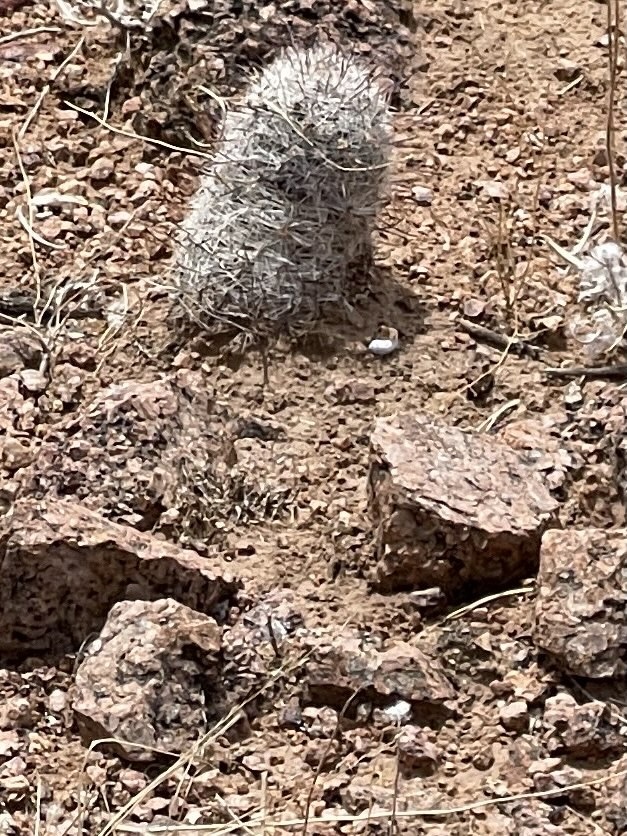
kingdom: Plantae
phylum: Tracheophyta
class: Magnoliopsida
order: Caryophyllales
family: Cactaceae
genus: Cochemiea
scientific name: Cochemiea grahamii
